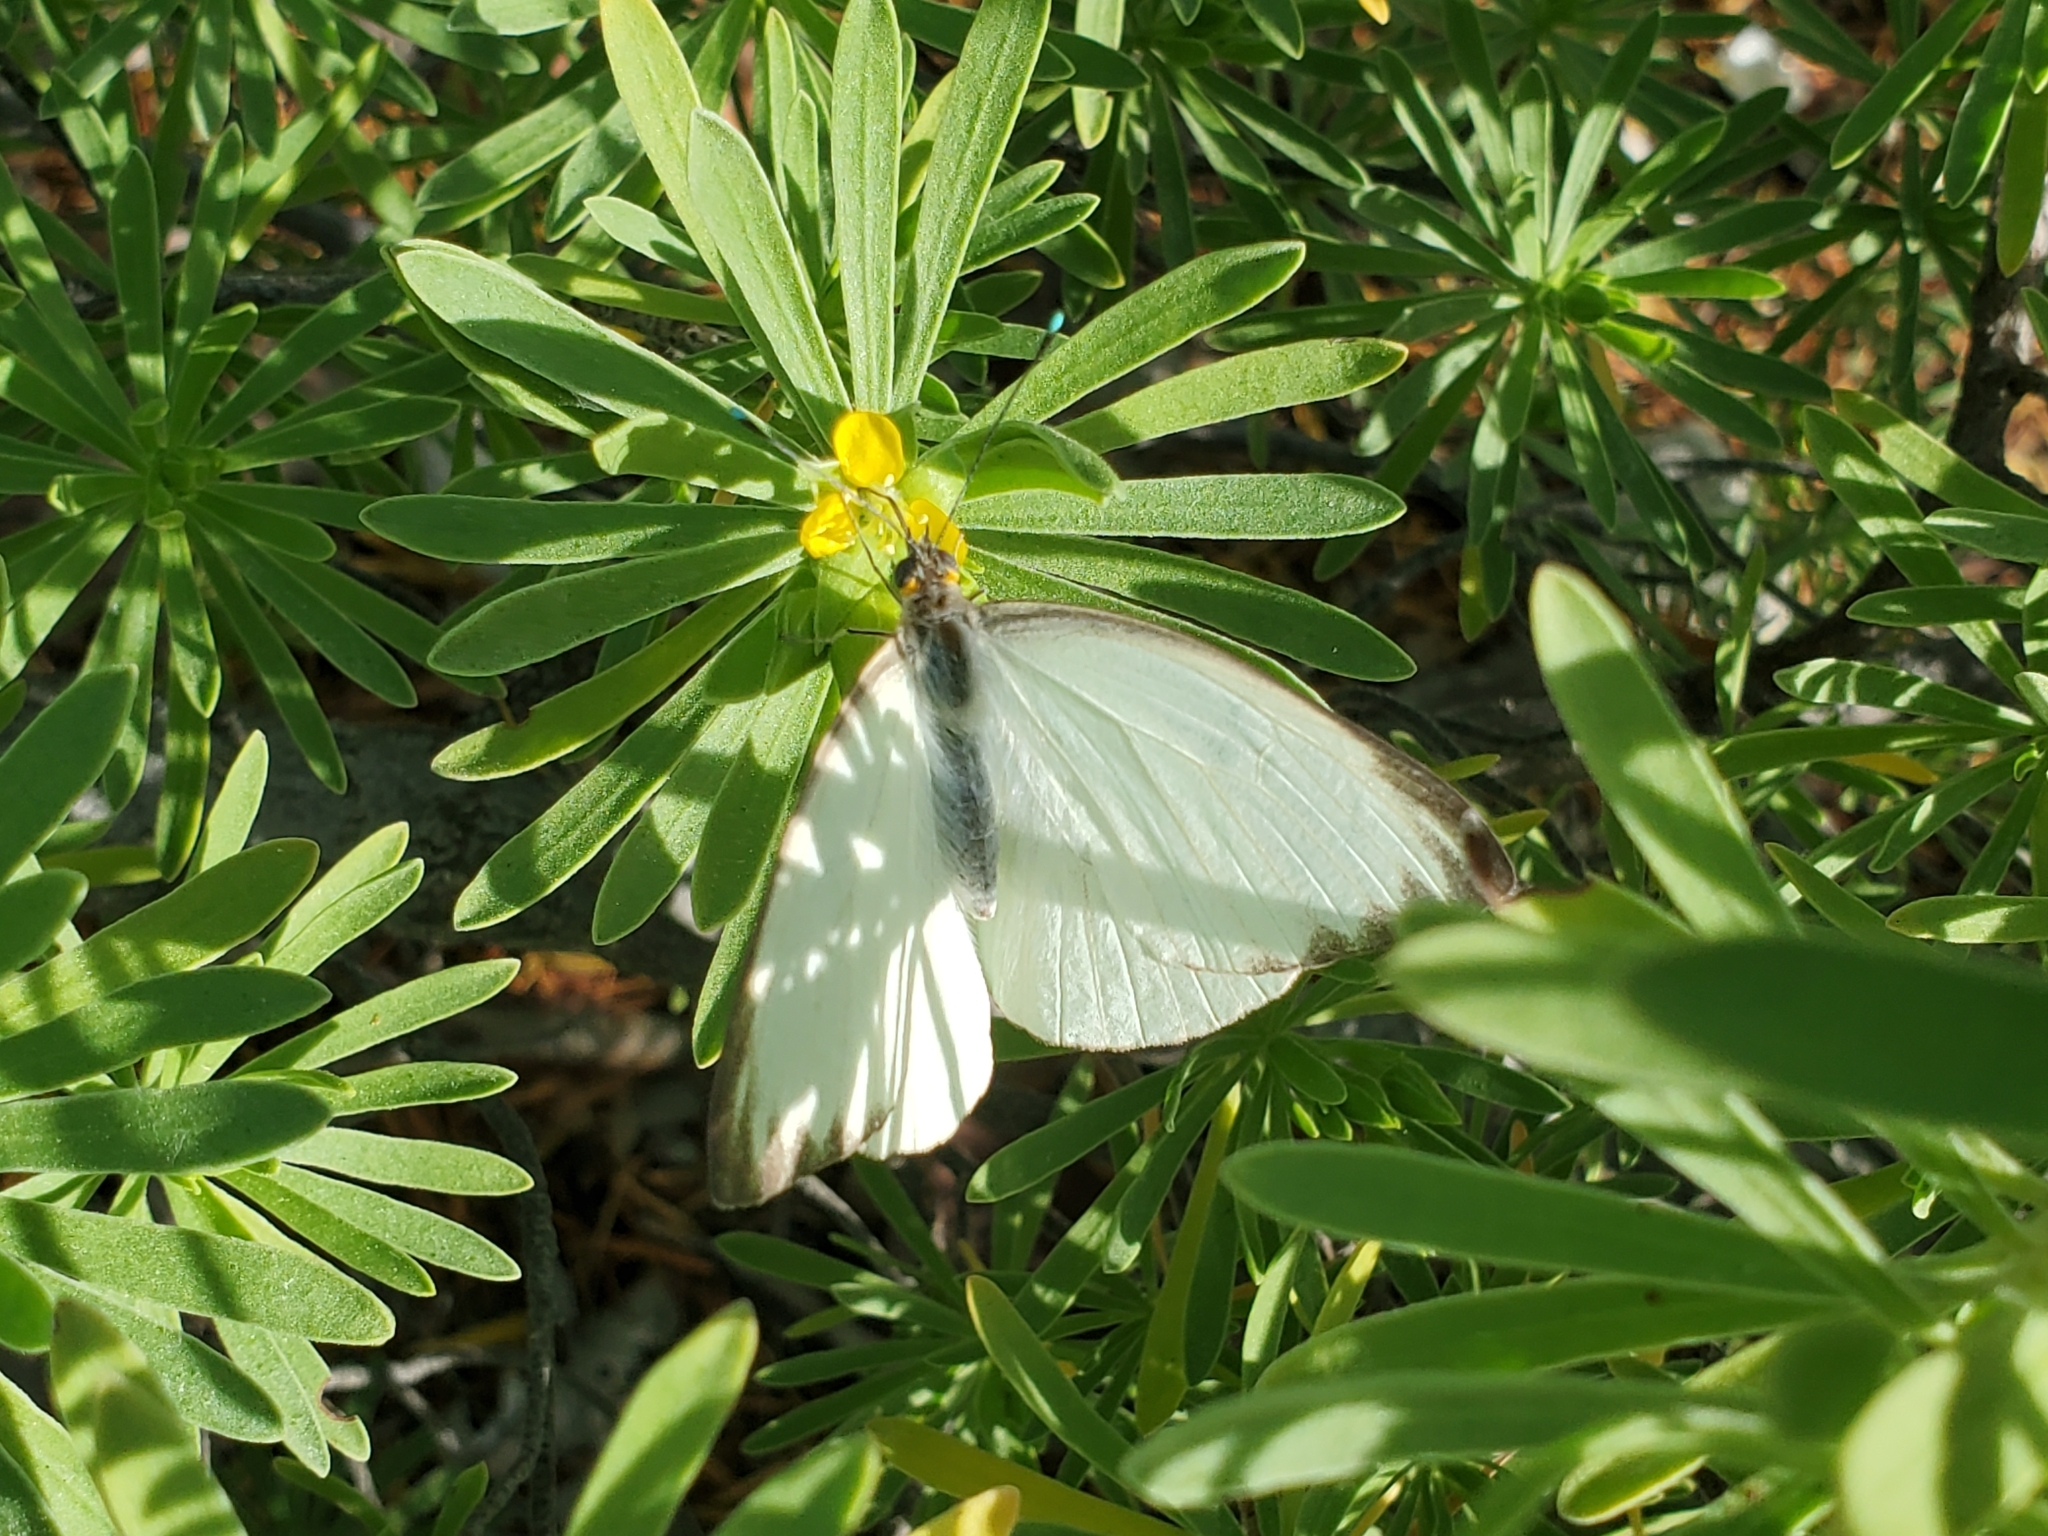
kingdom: Animalia
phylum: Arthropoda
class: Insecta
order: Lepidoptera
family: Pieridae
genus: Ascia
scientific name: Ascia monuste
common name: Great southern white
